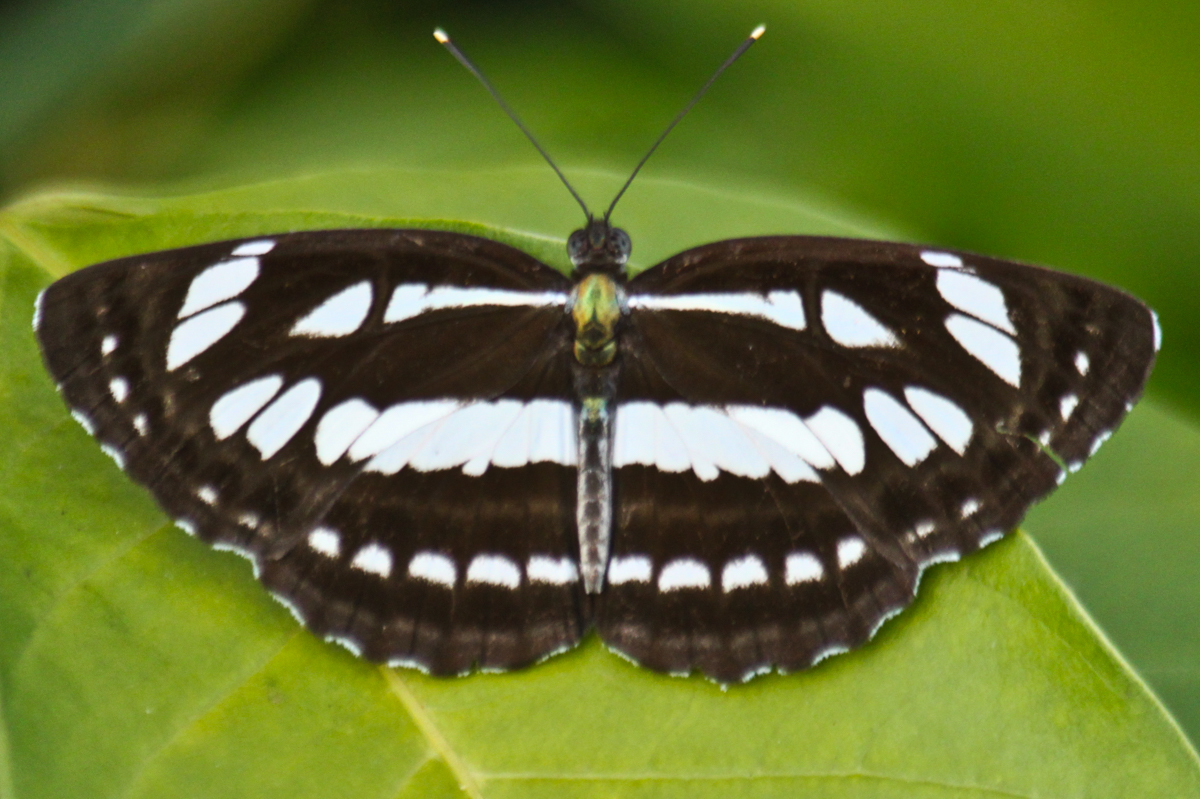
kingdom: Animalia
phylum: Arthropoda
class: Insecta
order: Lepidoptera
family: Nymphalidae
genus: Neptis
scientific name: Neptis hylas
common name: Common sailer
